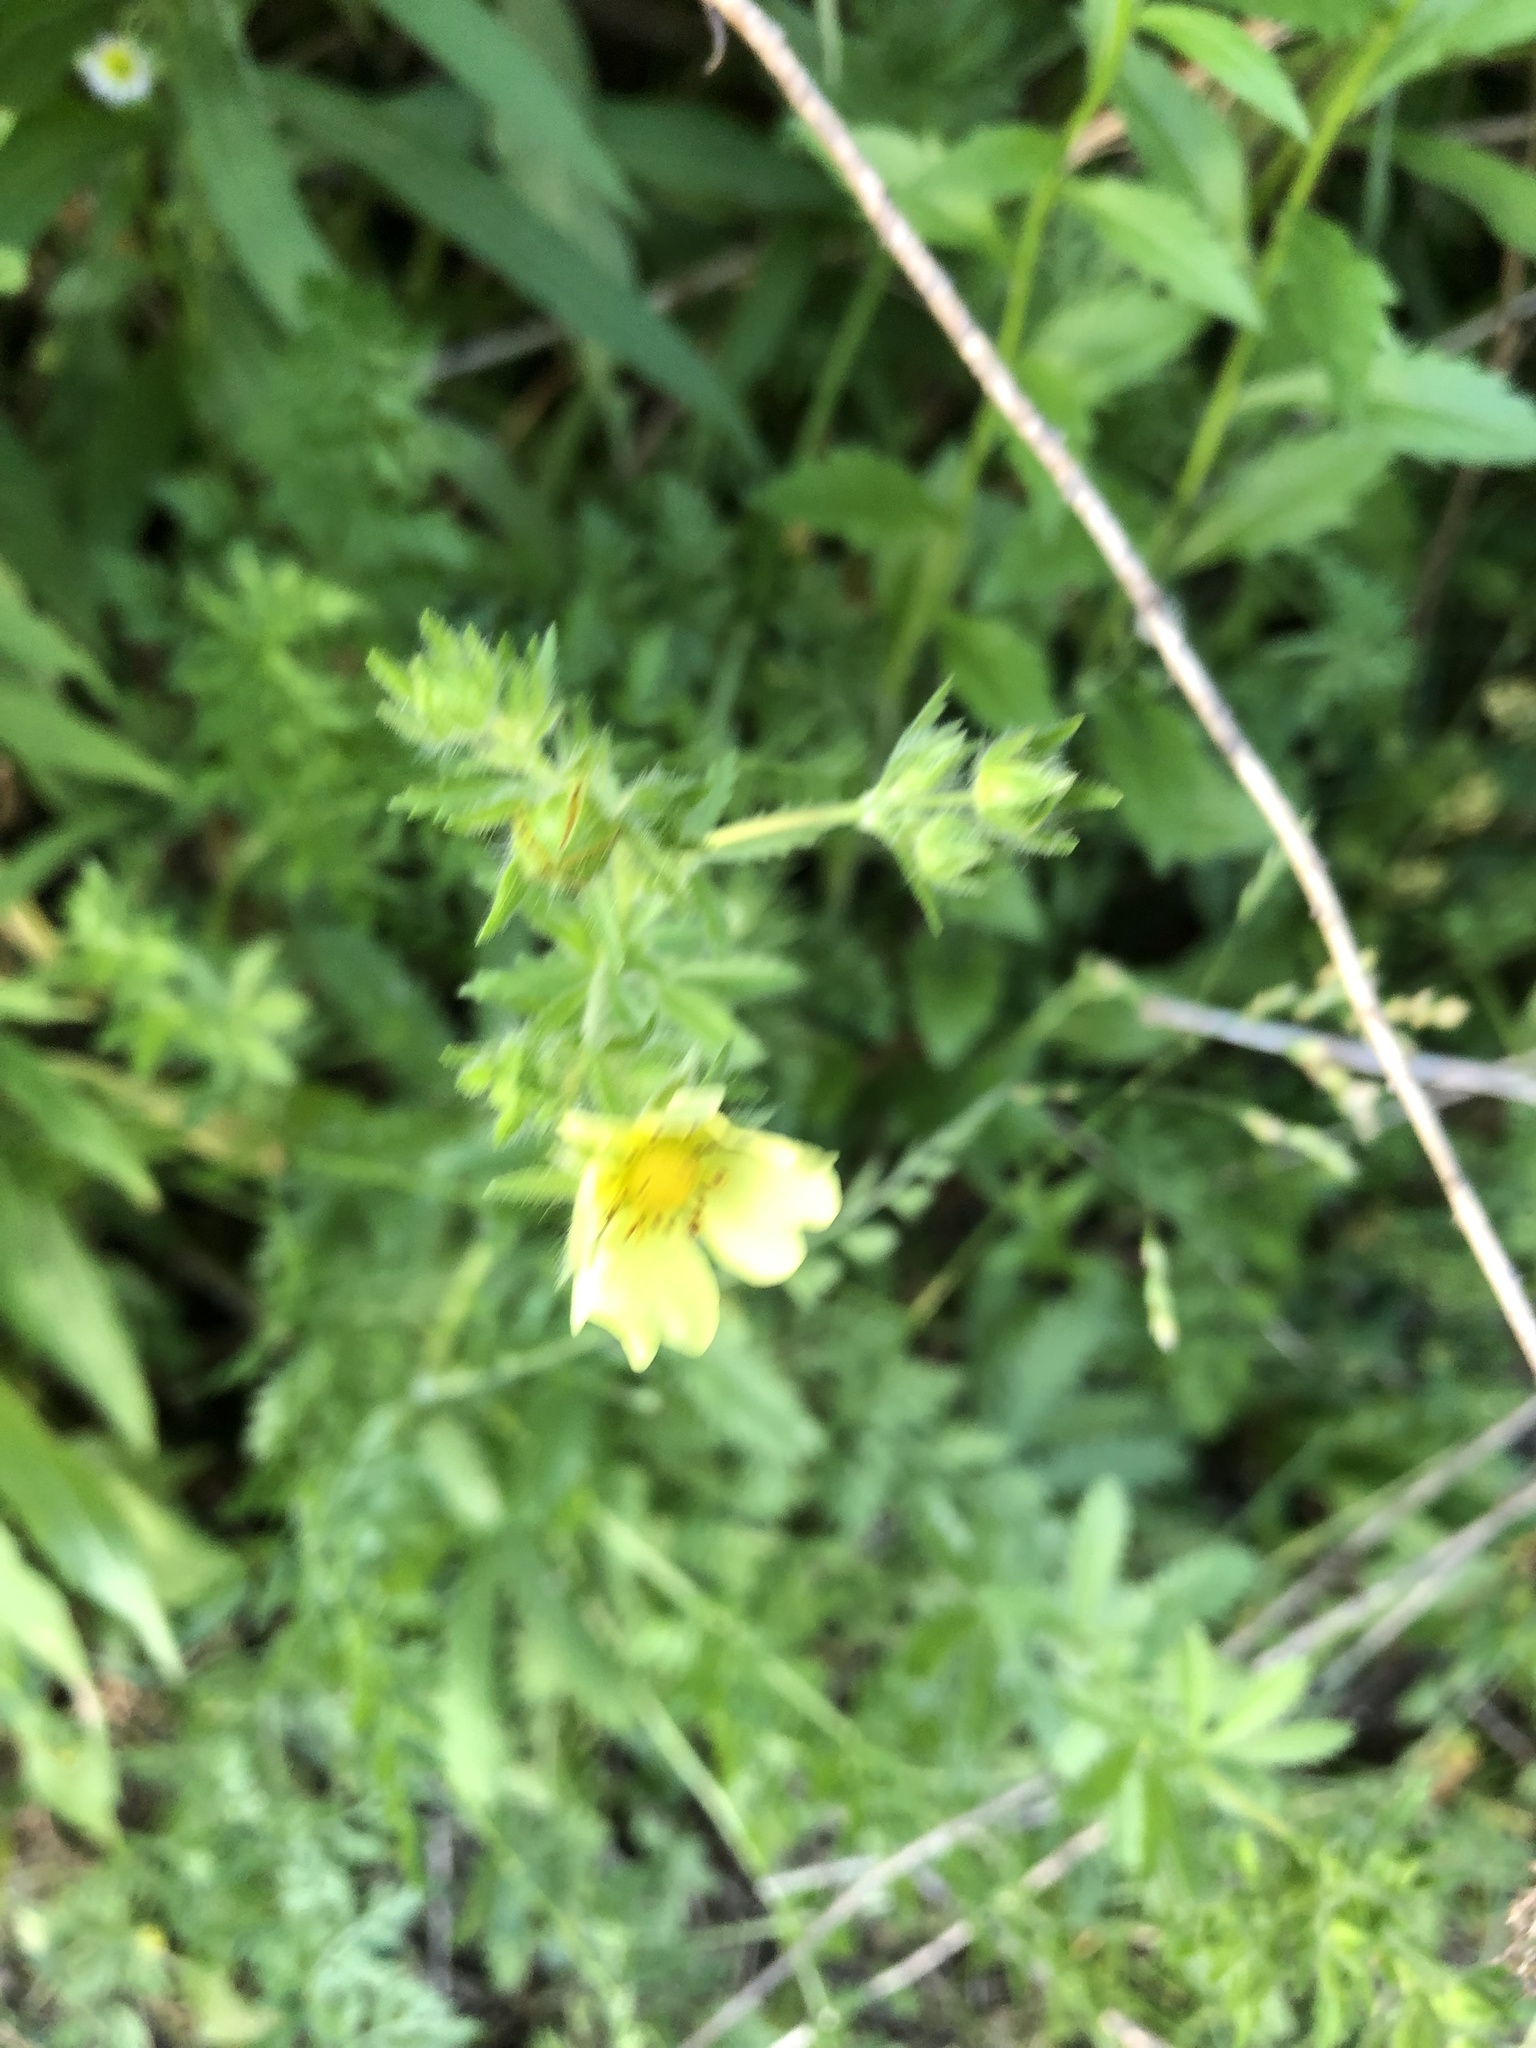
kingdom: Plantae
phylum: Tracheophyta
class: Magnoliopsida
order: Rosales
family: Rosaceae
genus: Potentilla
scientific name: Potentilla recta
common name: Sulphur cinquefoil
